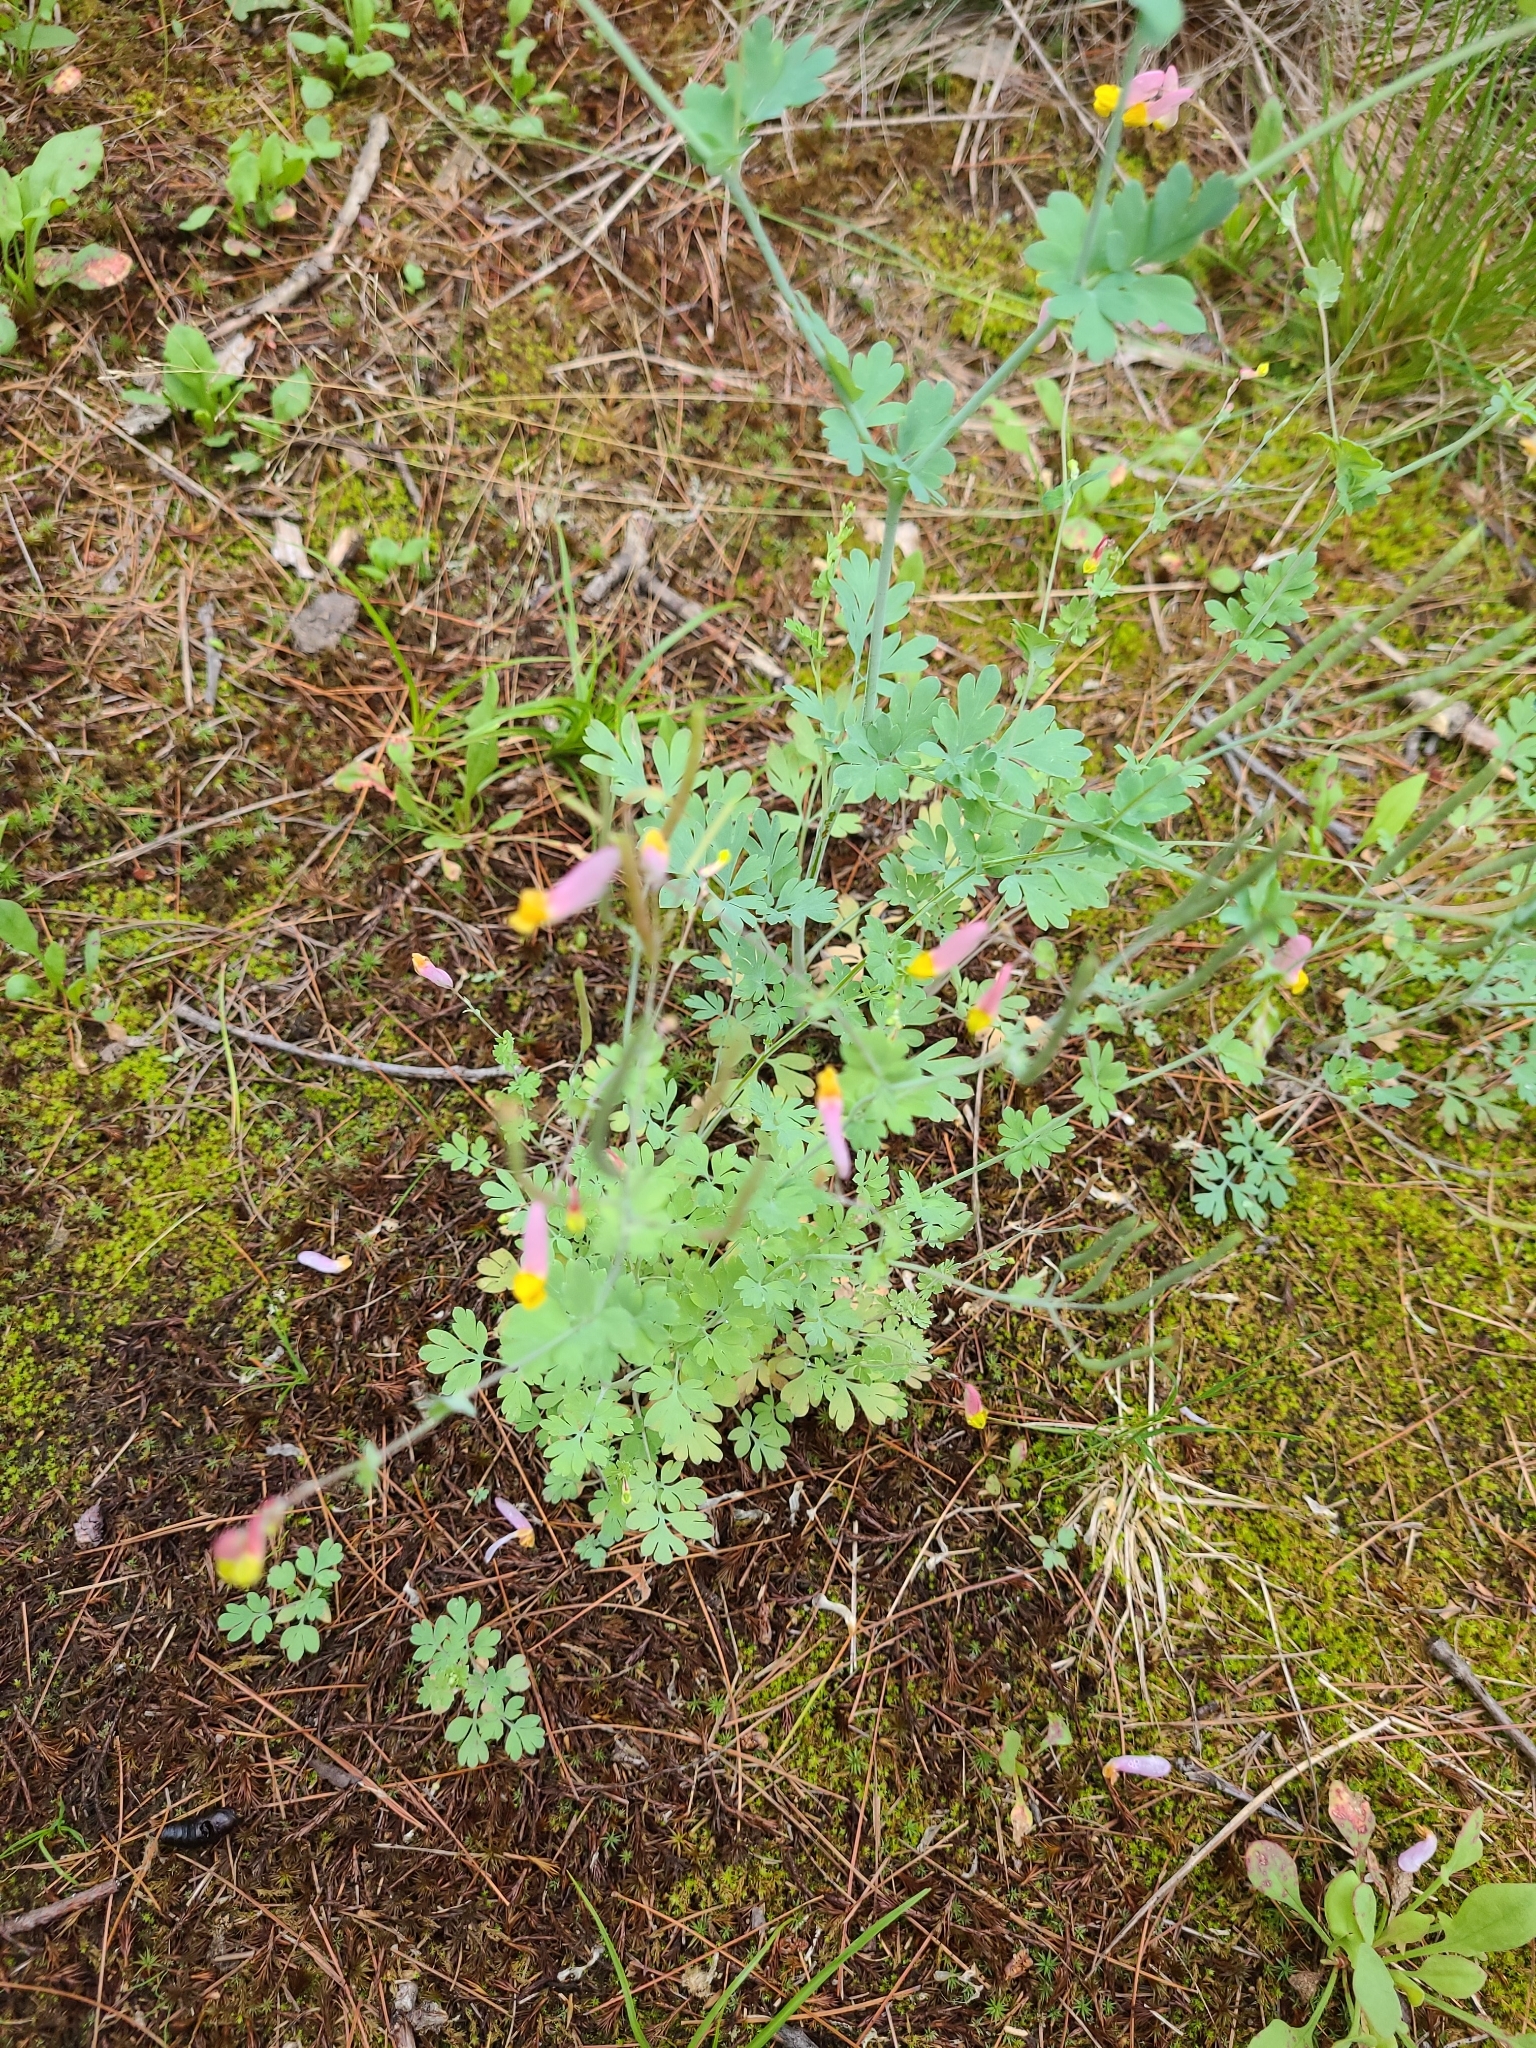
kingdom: Plantae
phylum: Tracheophyta
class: Magnoliopsida
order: Ranunculales
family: Papaveraceae
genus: Capnoides
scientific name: Capnoides sempervirens
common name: Rock harlequin
